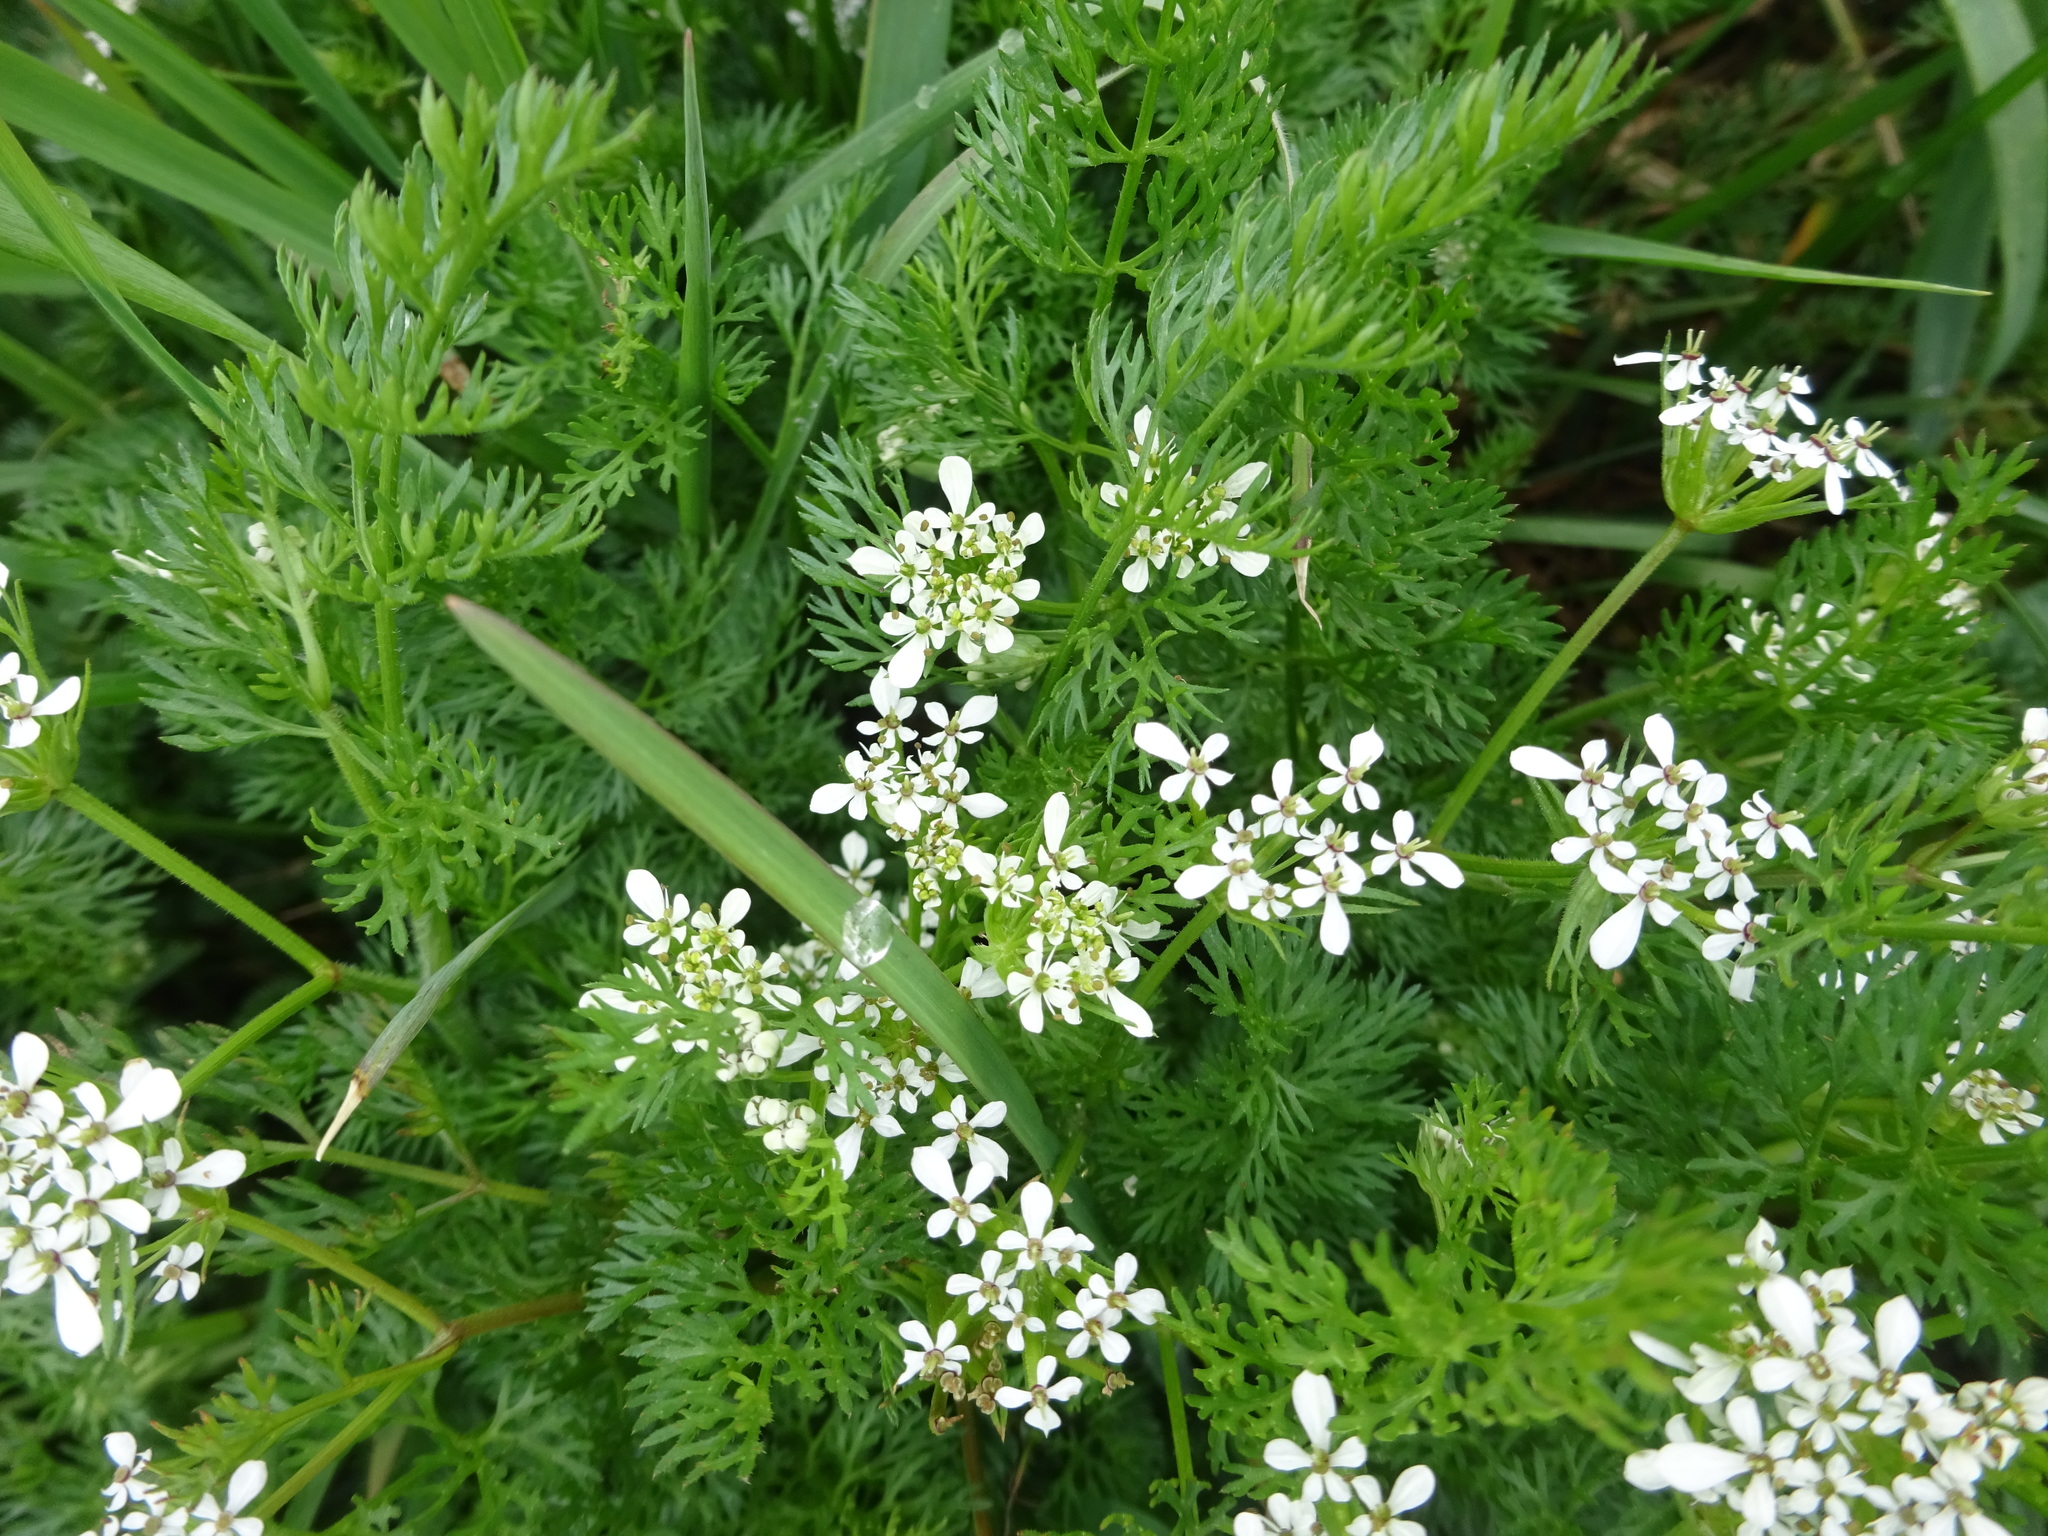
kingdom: Plantae
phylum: Tracheophyta
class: Magnoliopsida
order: Apiales
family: Apiaceae
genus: Scandix
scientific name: Scandix pecten-veneris
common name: Shepherd's-needle
